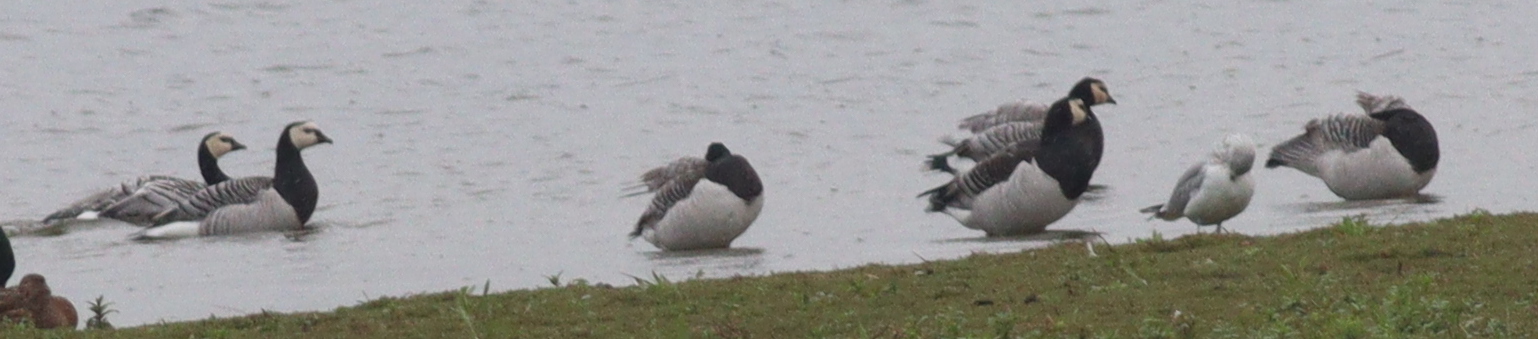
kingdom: Animalia
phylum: Chordata
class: Aves
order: Anseriformes
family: Anatidae
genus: Branta
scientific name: Branta leucopsis
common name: Barnacle goose
